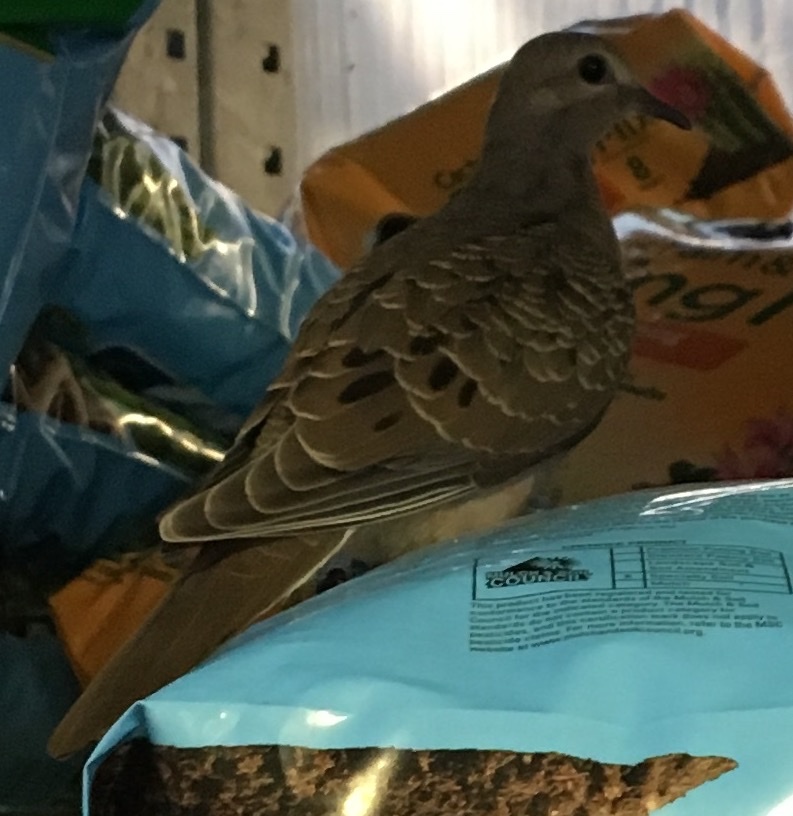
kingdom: Animalia
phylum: Chordata
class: Aves
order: Columbiformes
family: Columbidae
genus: Zenaida
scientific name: Zenaida macroura
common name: Mourning dove
